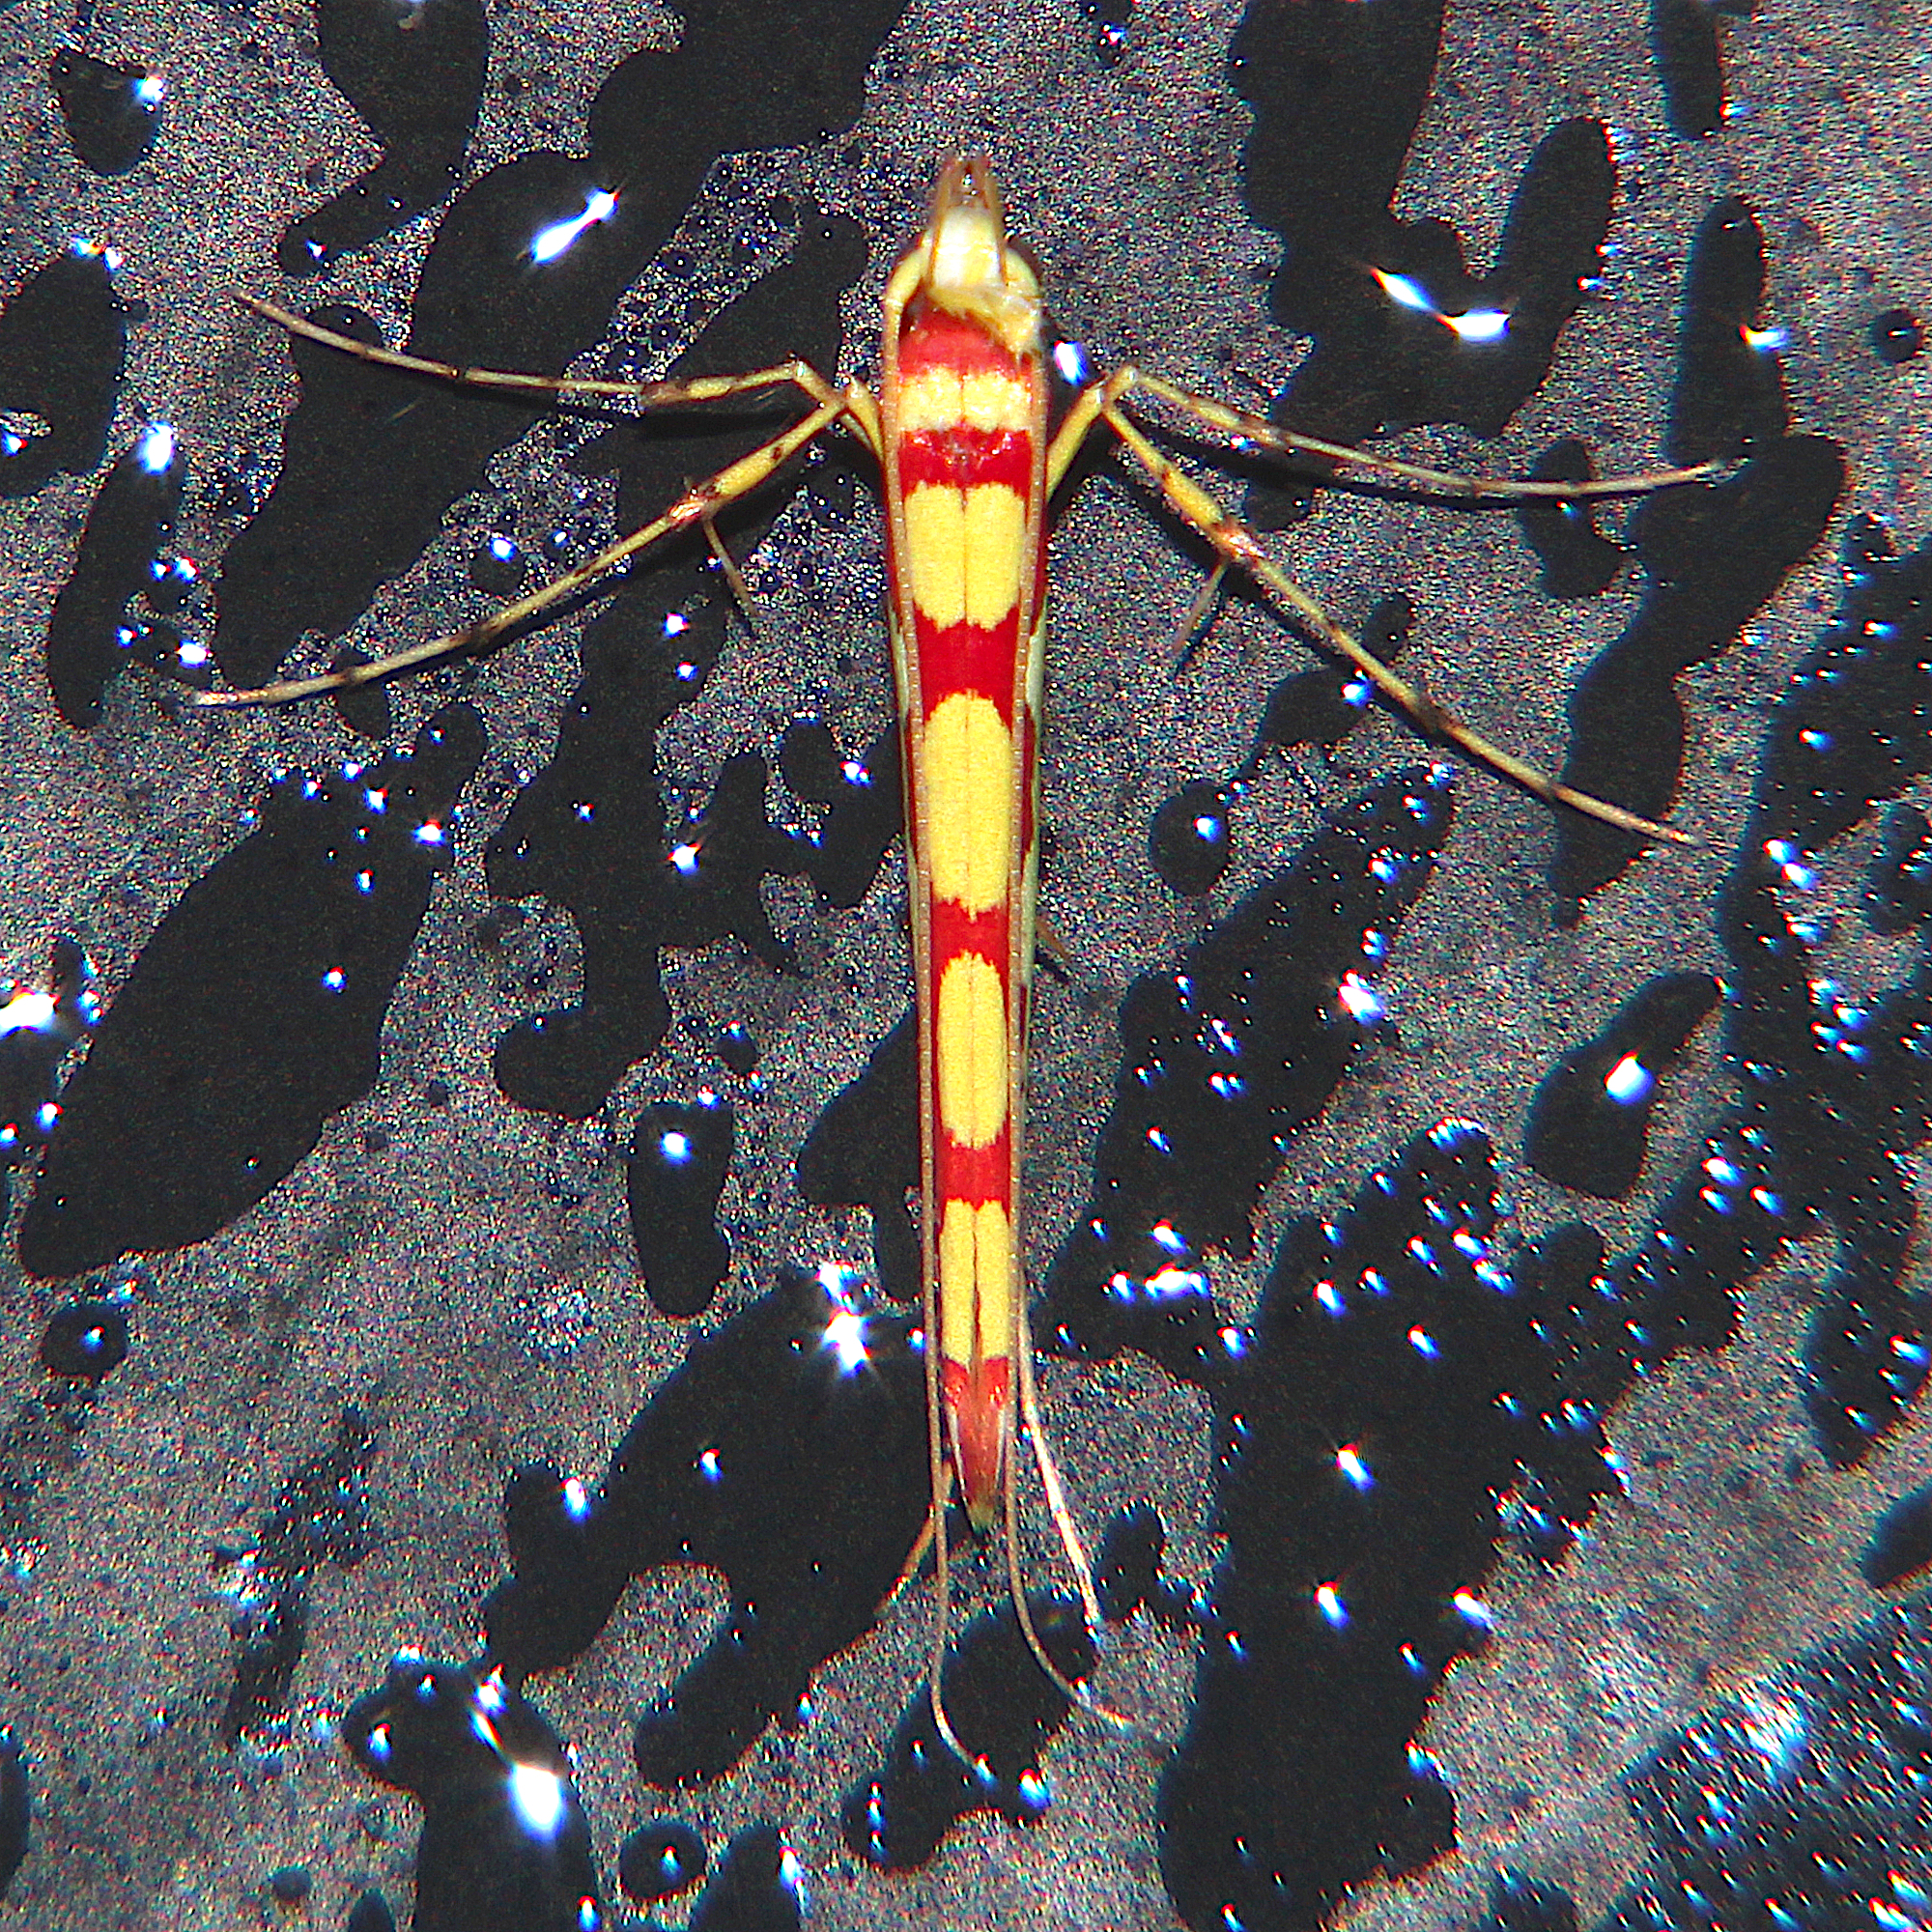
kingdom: Animalia
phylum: Arthropoda
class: Insecta
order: Lepidoptera
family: Gracillariidae
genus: Macarostola
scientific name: Macarostola miniella
